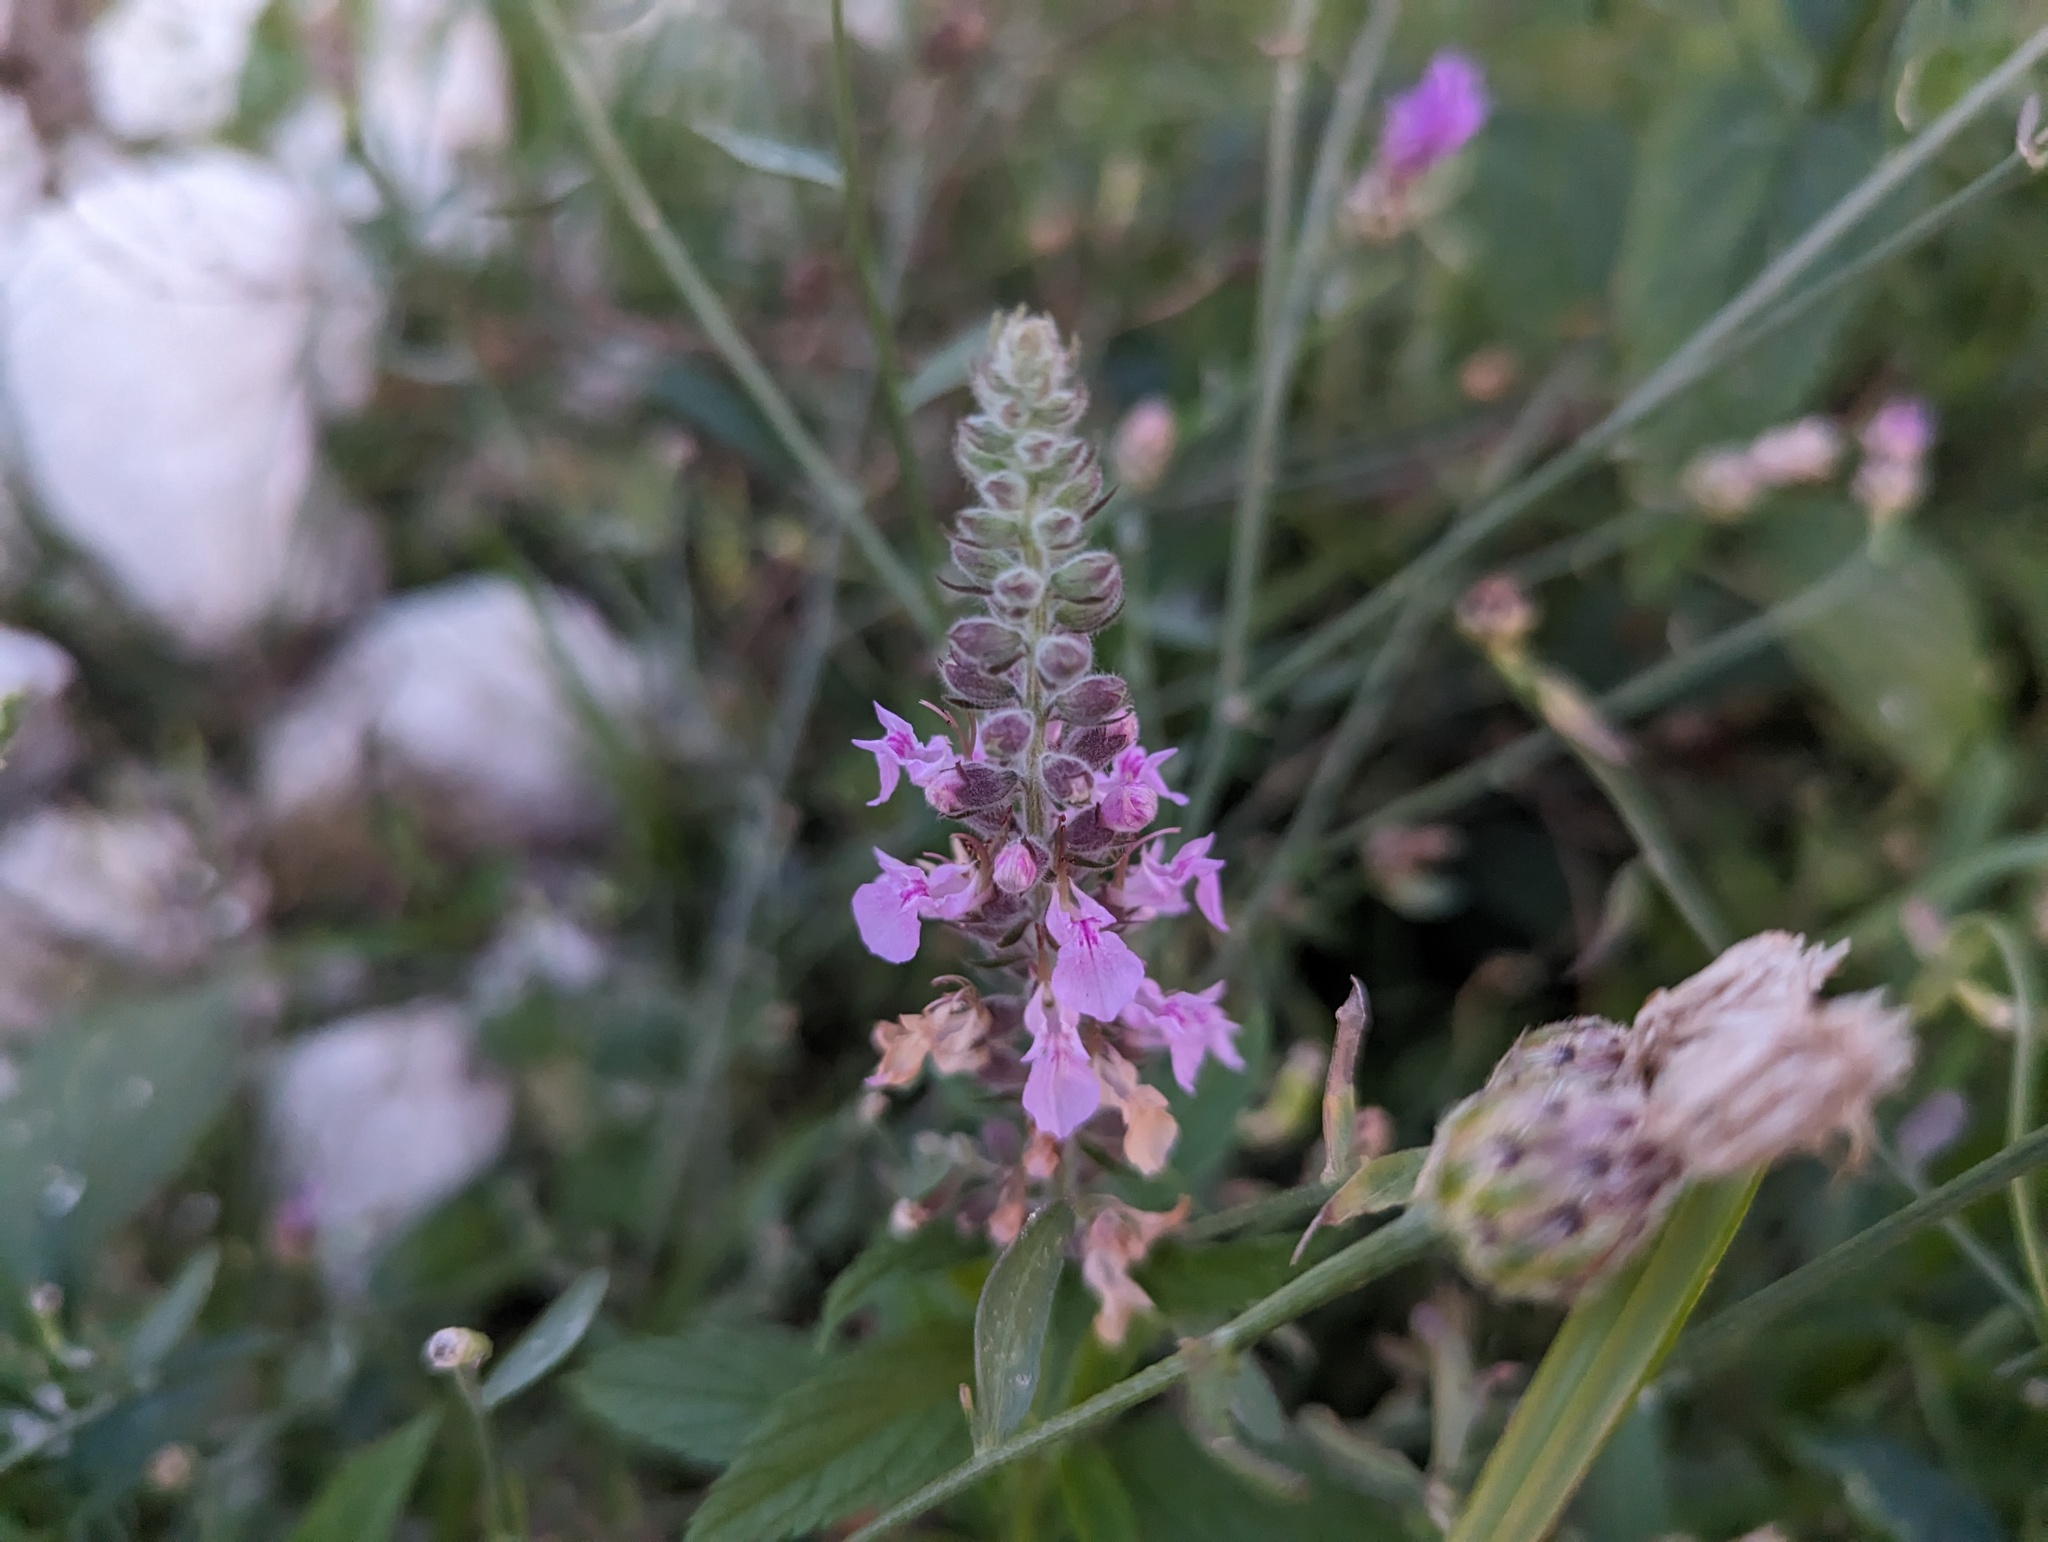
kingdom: Plantae
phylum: Tracheophyta
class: Magnoliopsida
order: Lamiales
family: Lamiaceae
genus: Teucrium
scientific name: Teucrium canadense
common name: American germander
